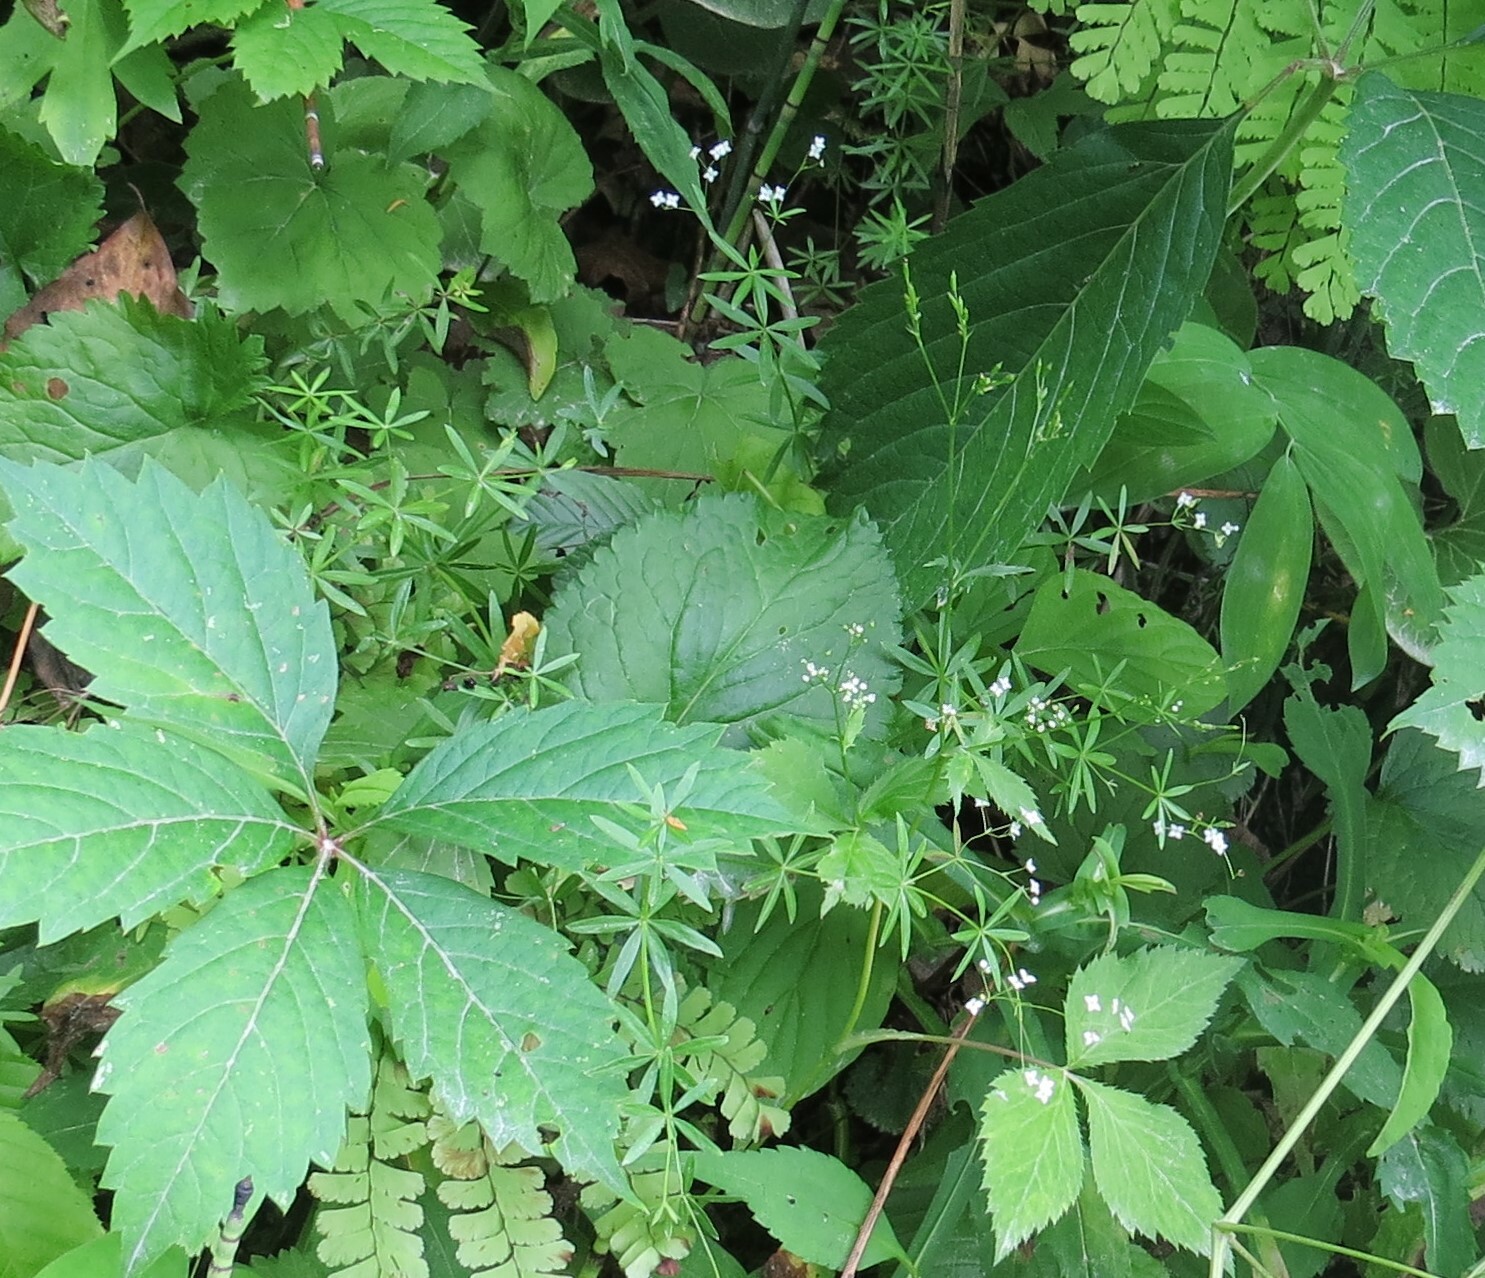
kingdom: Plantae
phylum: Tracheophyta
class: Magnoliopsida
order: Gentianales
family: Rubiaceae
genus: Galium
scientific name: Galium concinnum
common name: Shining bedstraw
